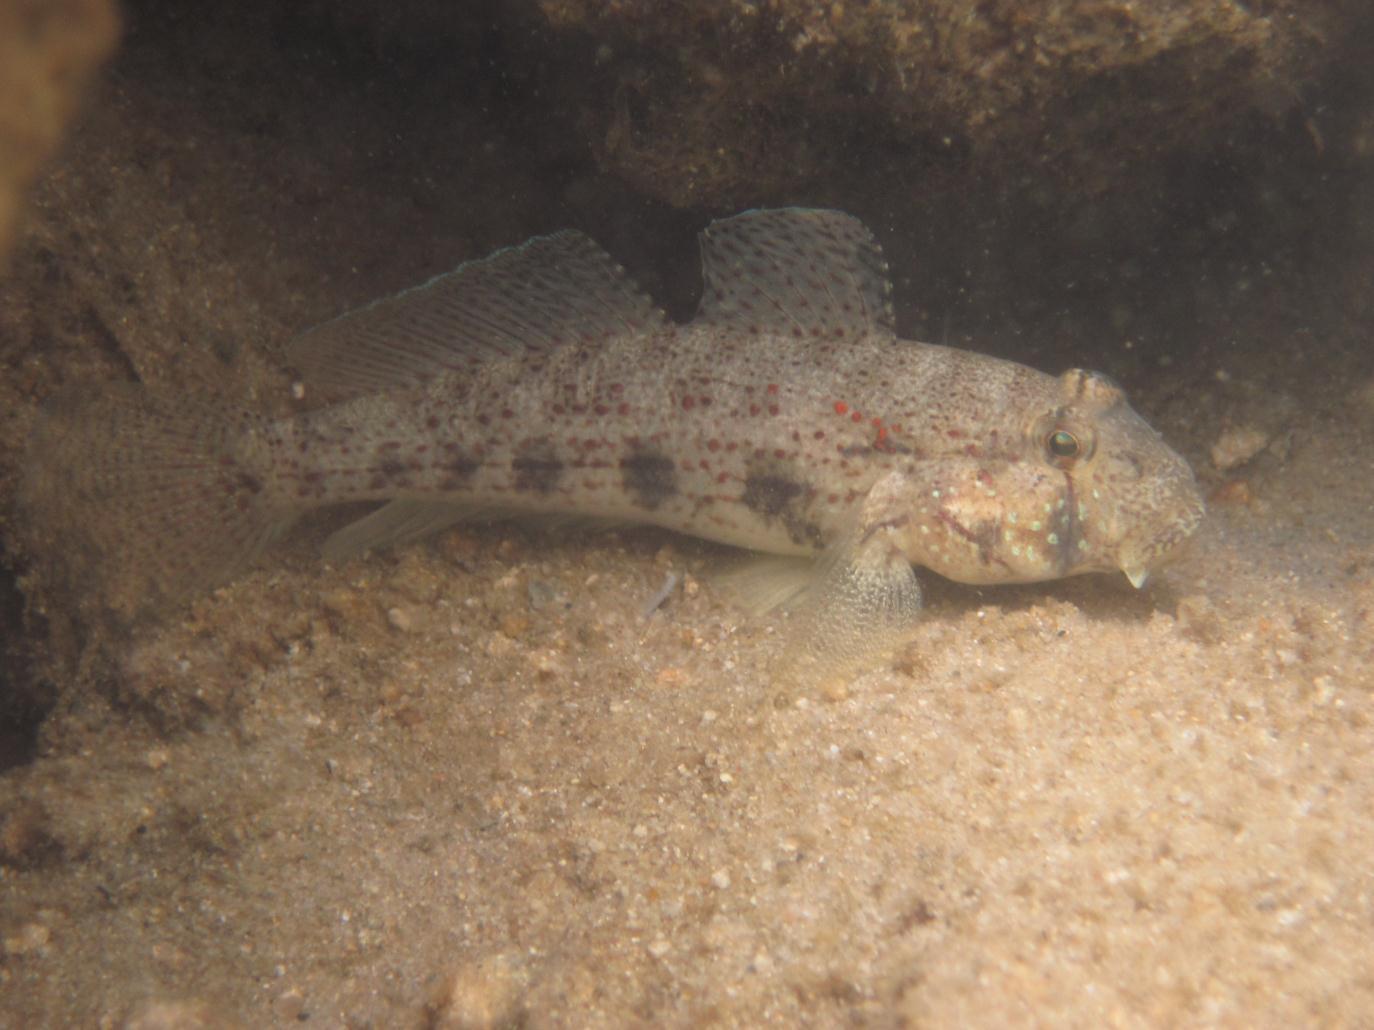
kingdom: Animalia
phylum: Chordata
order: Perciformes
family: Gobiidae
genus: Gnatholepis
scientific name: Gnatholepis anjerensis
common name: Anjer eye-bar goby
